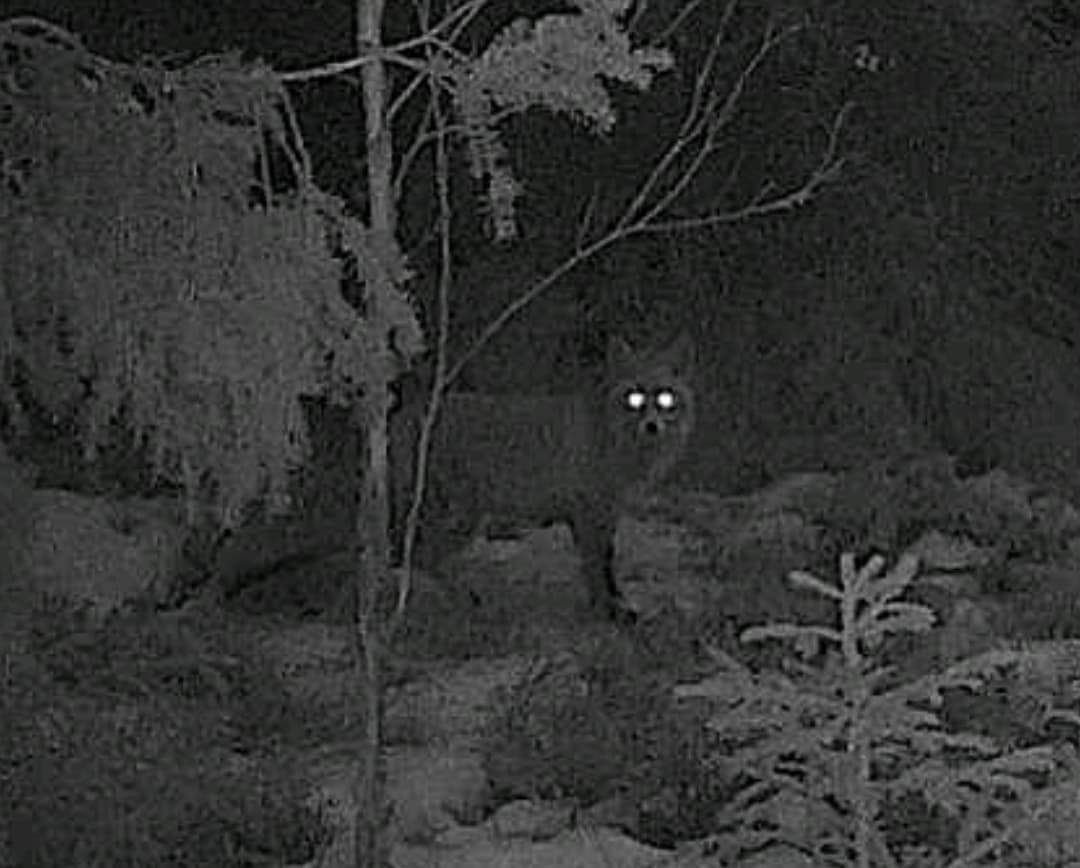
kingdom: Animalia
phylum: Chordata
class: Mammalia
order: Carnivora
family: Canidae
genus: Vulpes
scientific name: Vulpes vulpes
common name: Red fox
